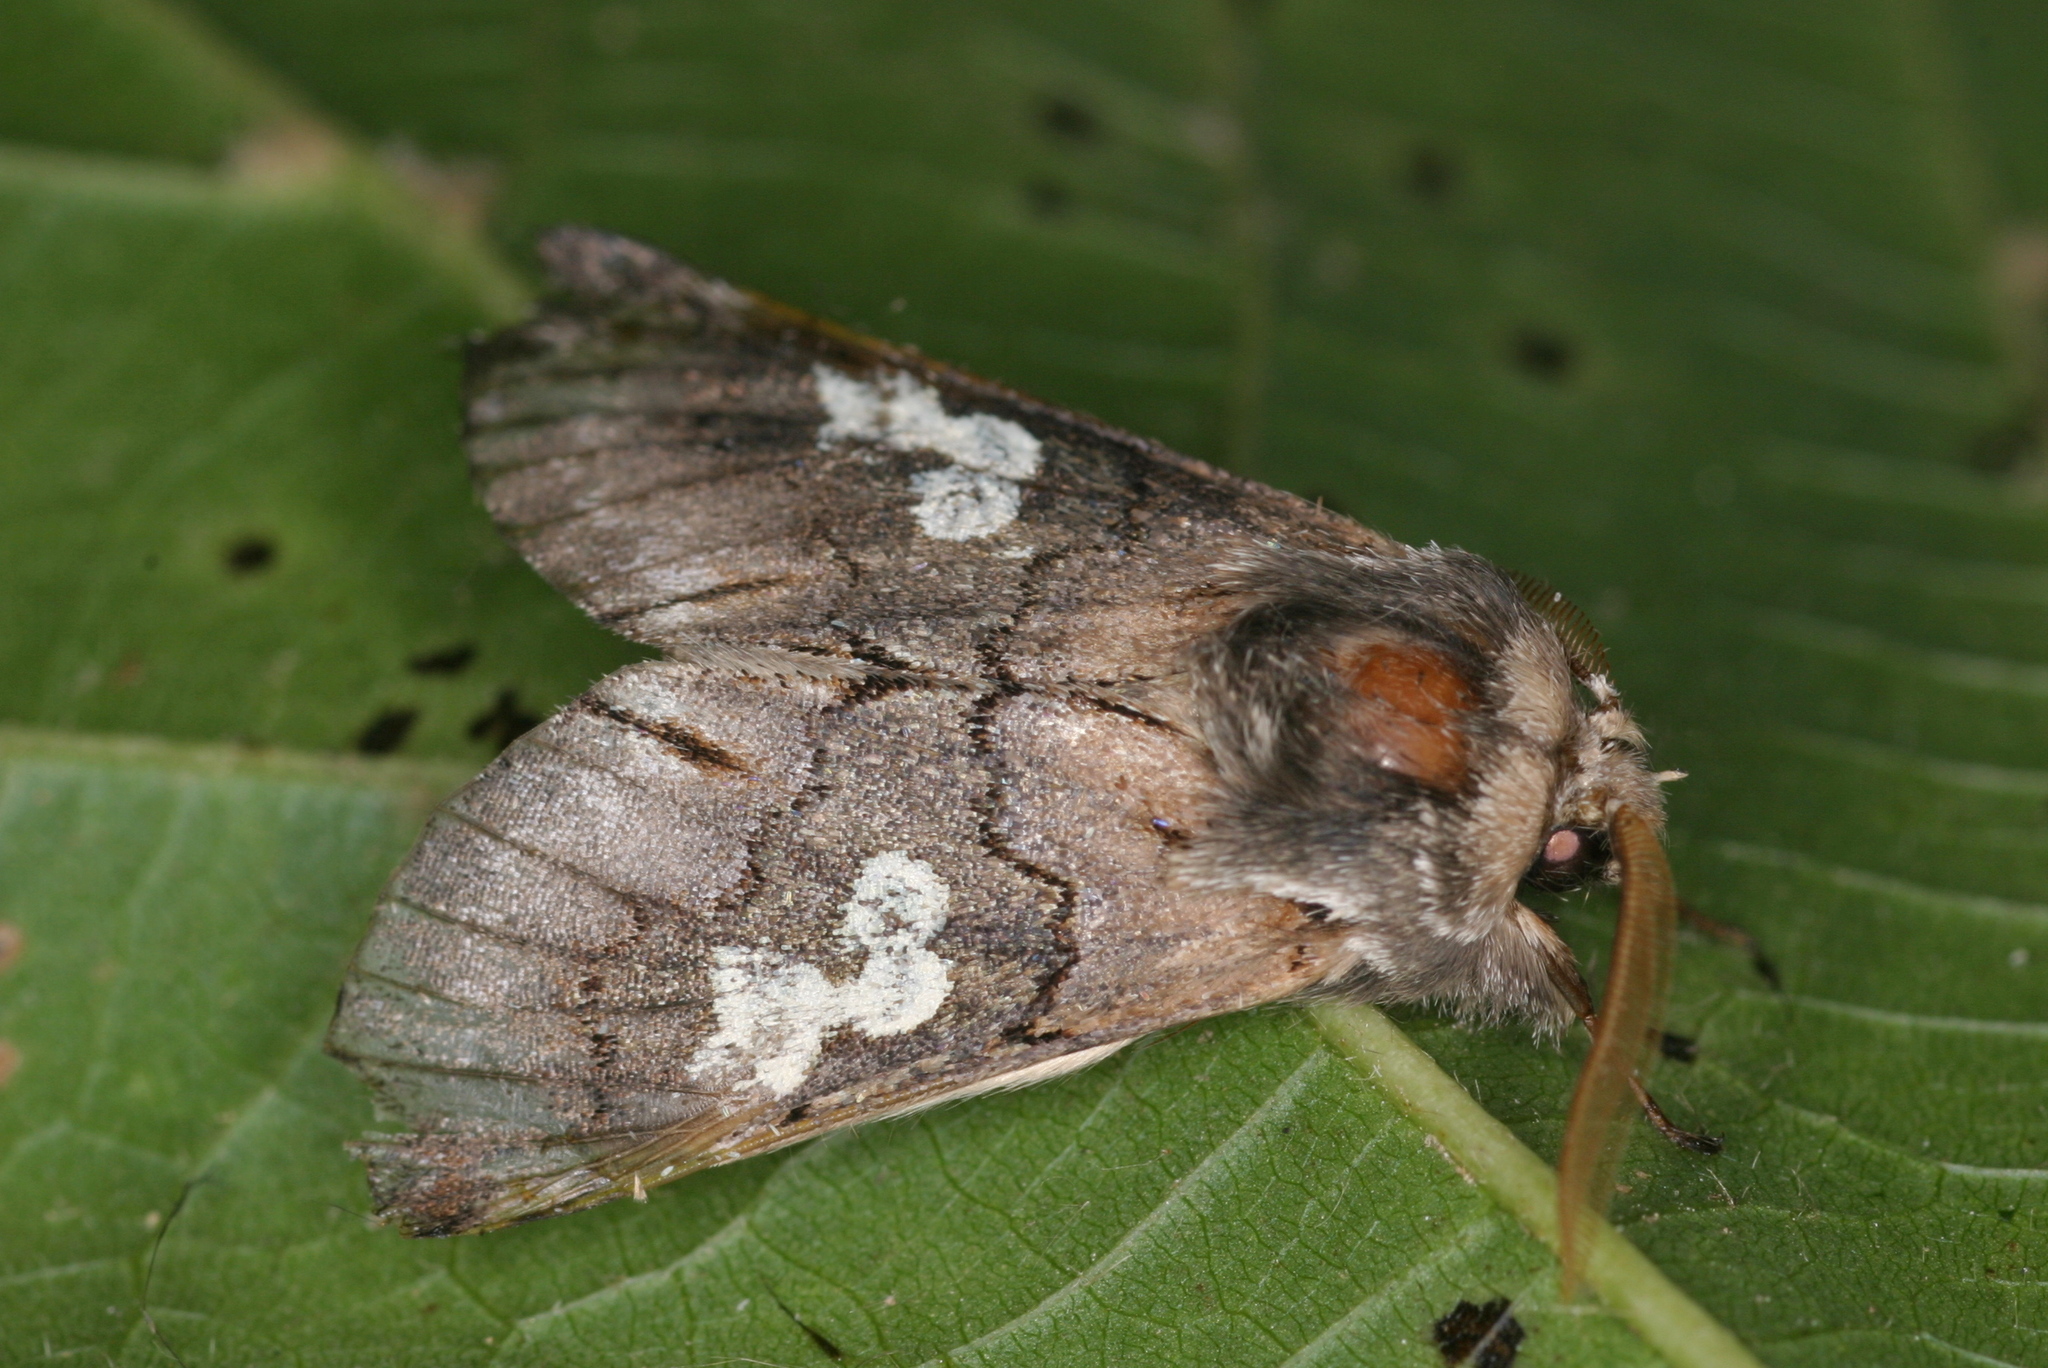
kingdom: Animalia
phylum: Arthropoda
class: Insecta
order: Lepidoptera
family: Noctuidae
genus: Diloba
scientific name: Diloba caeruleocephala
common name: Figure of eight
